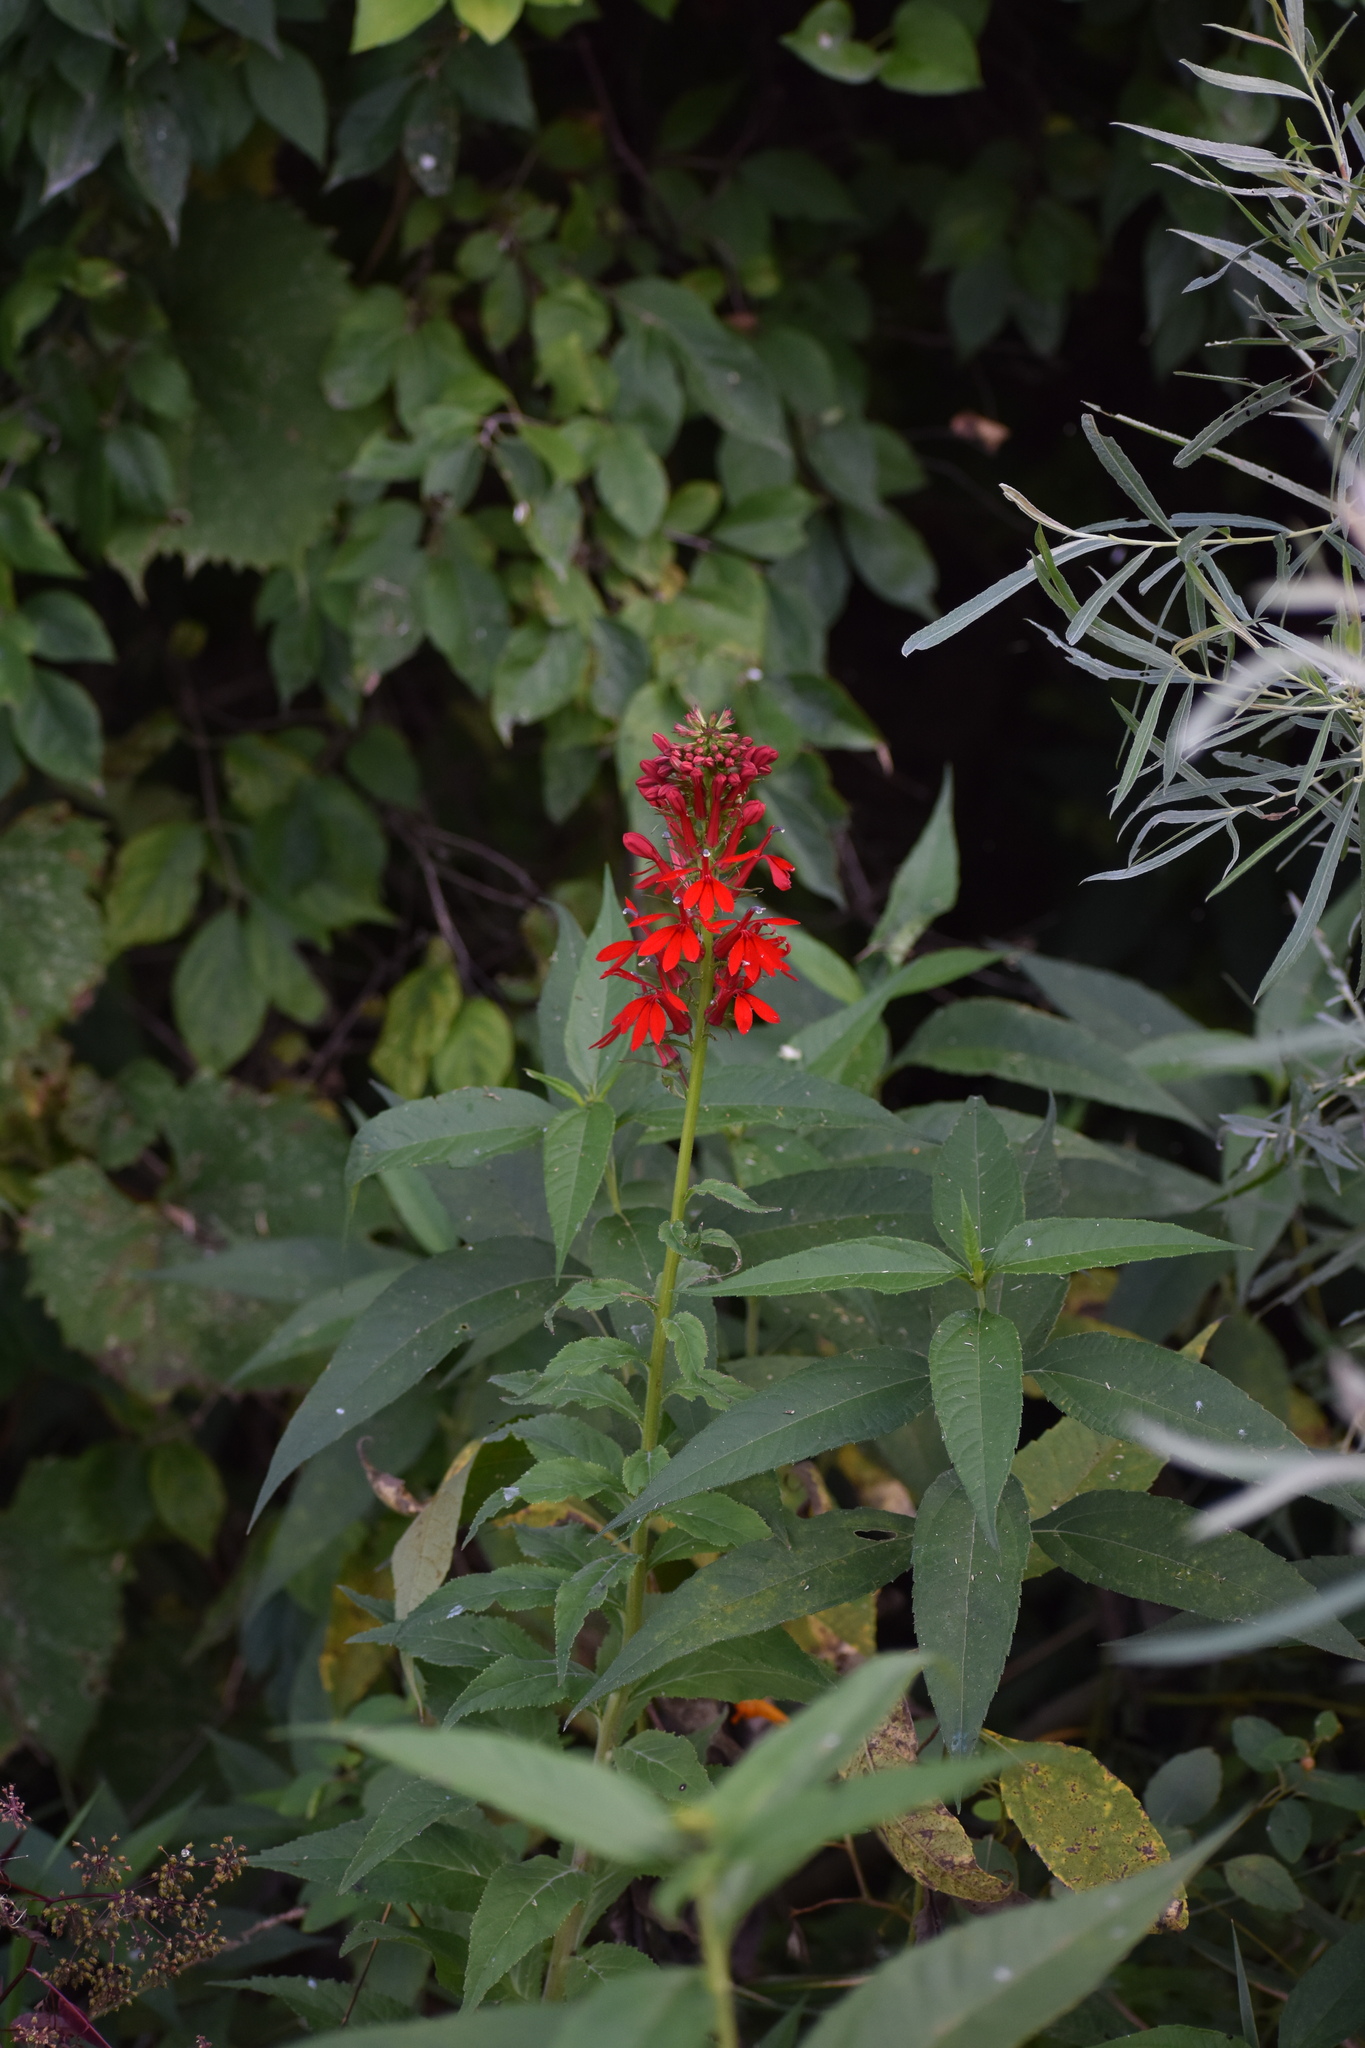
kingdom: Plantae
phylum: Tracheophyta
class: Magnoliopsida
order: Asterales
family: Campanulaceae
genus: Lobelia
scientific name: Lobelia cardinalis
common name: Cardinal flower
